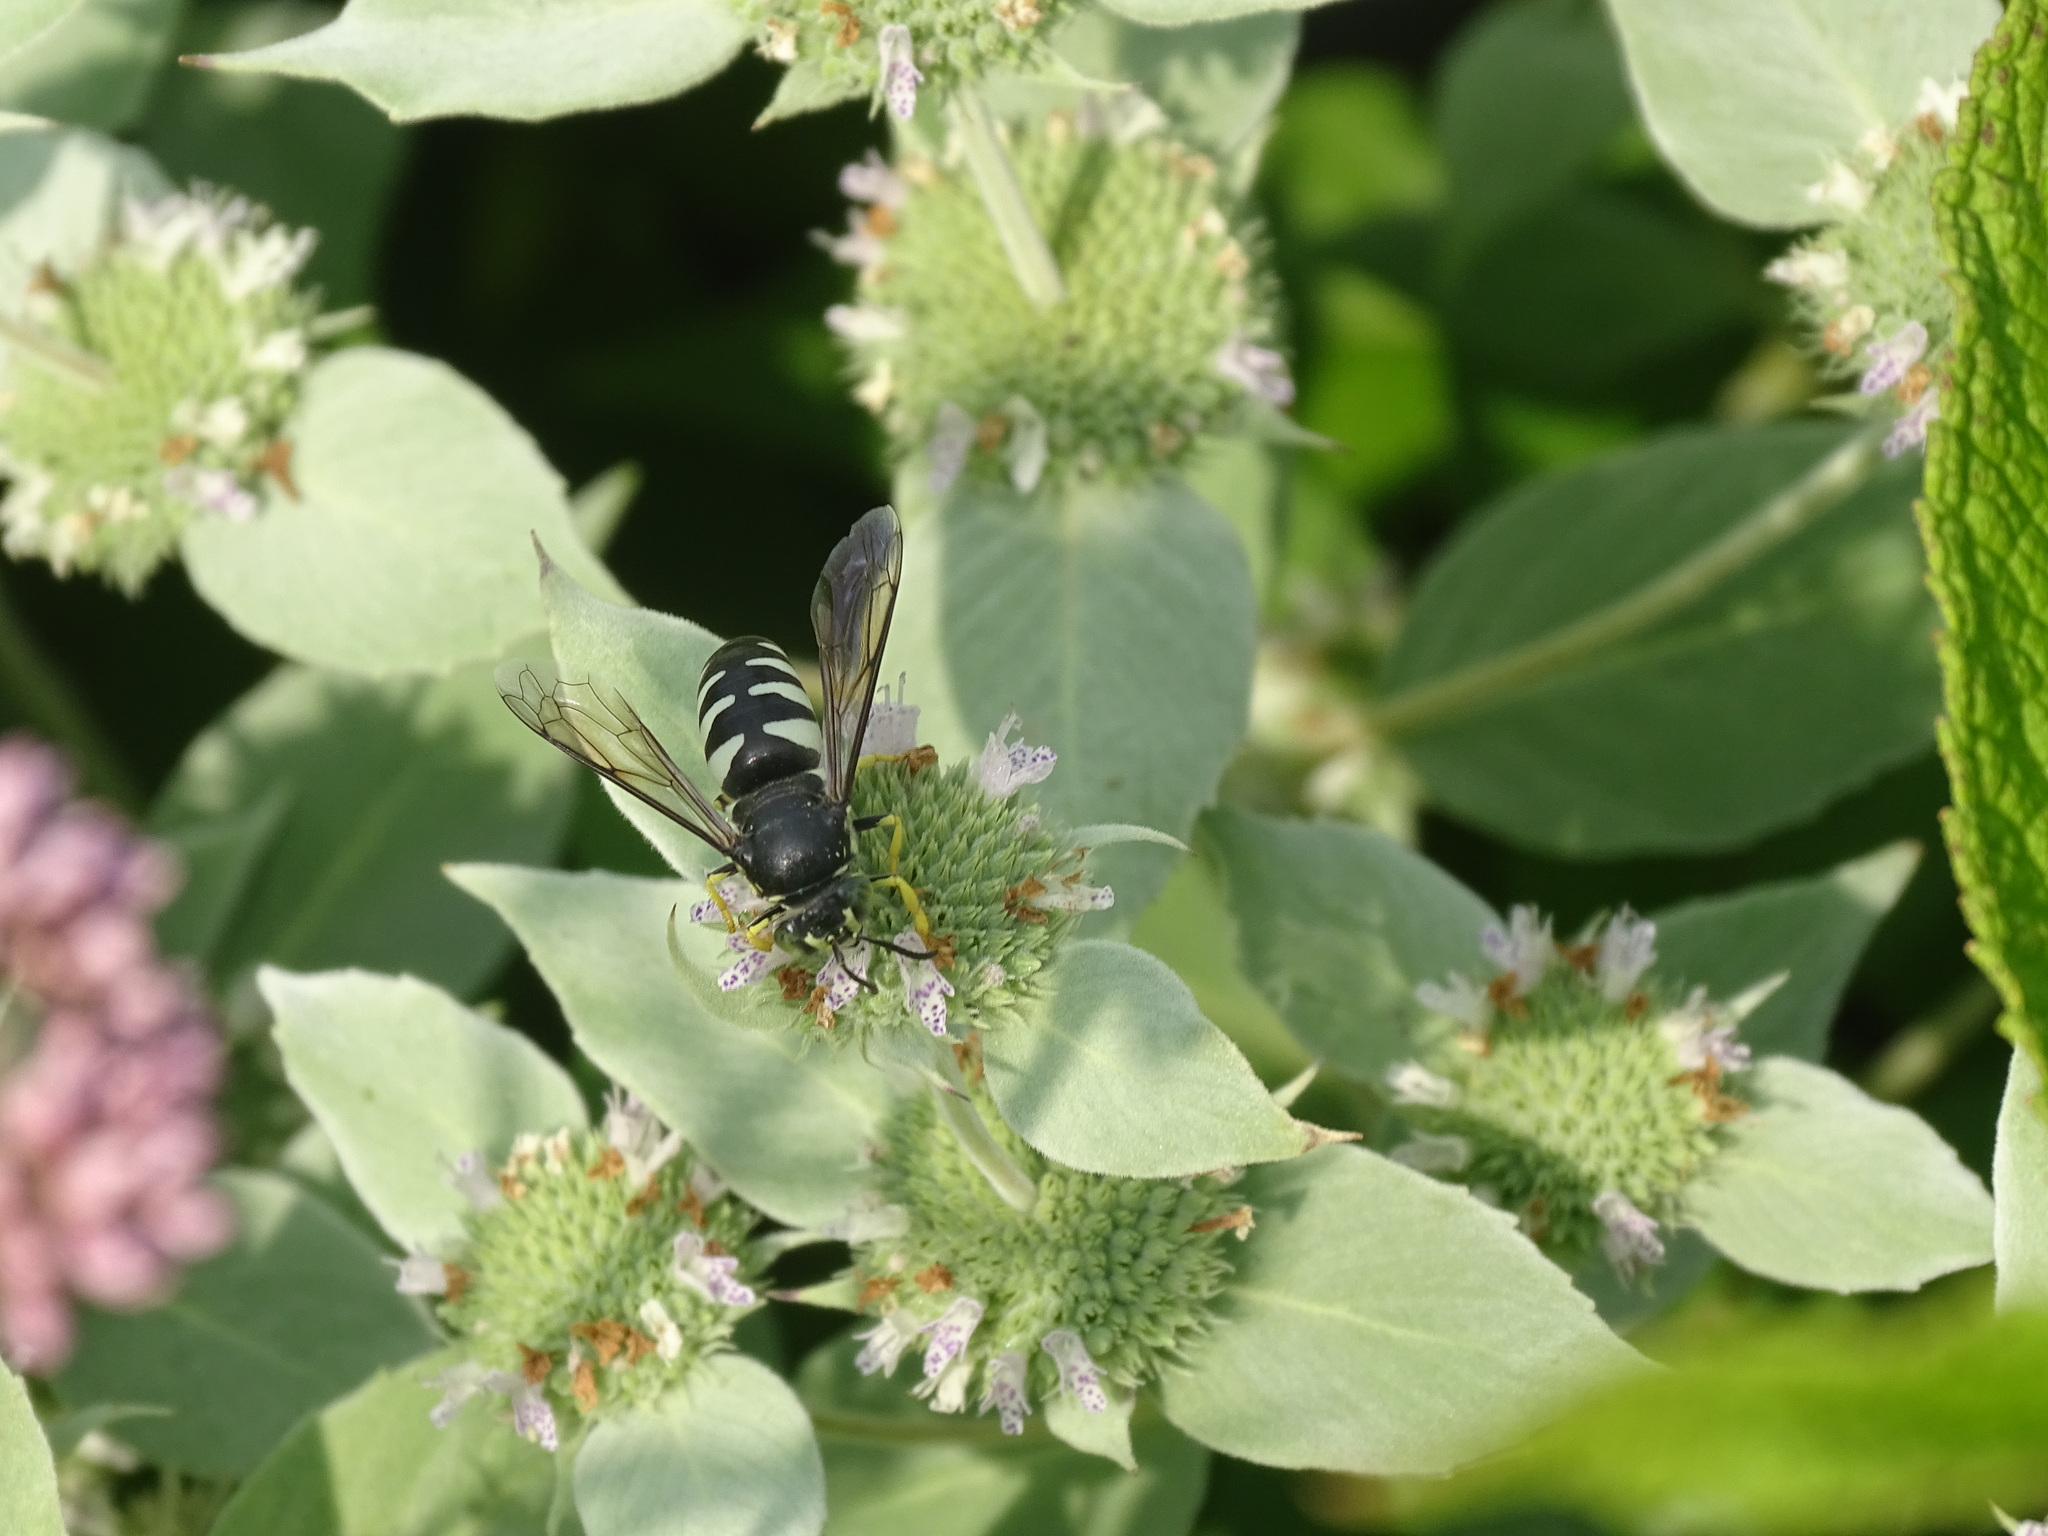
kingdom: Animalia
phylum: Arthropoda
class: Insecta
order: Hymenoptera
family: Crabronidae
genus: Bicyrtes
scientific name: Bicyrtes quadrifasciatus
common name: Four-banded stink bug hunter wasp
